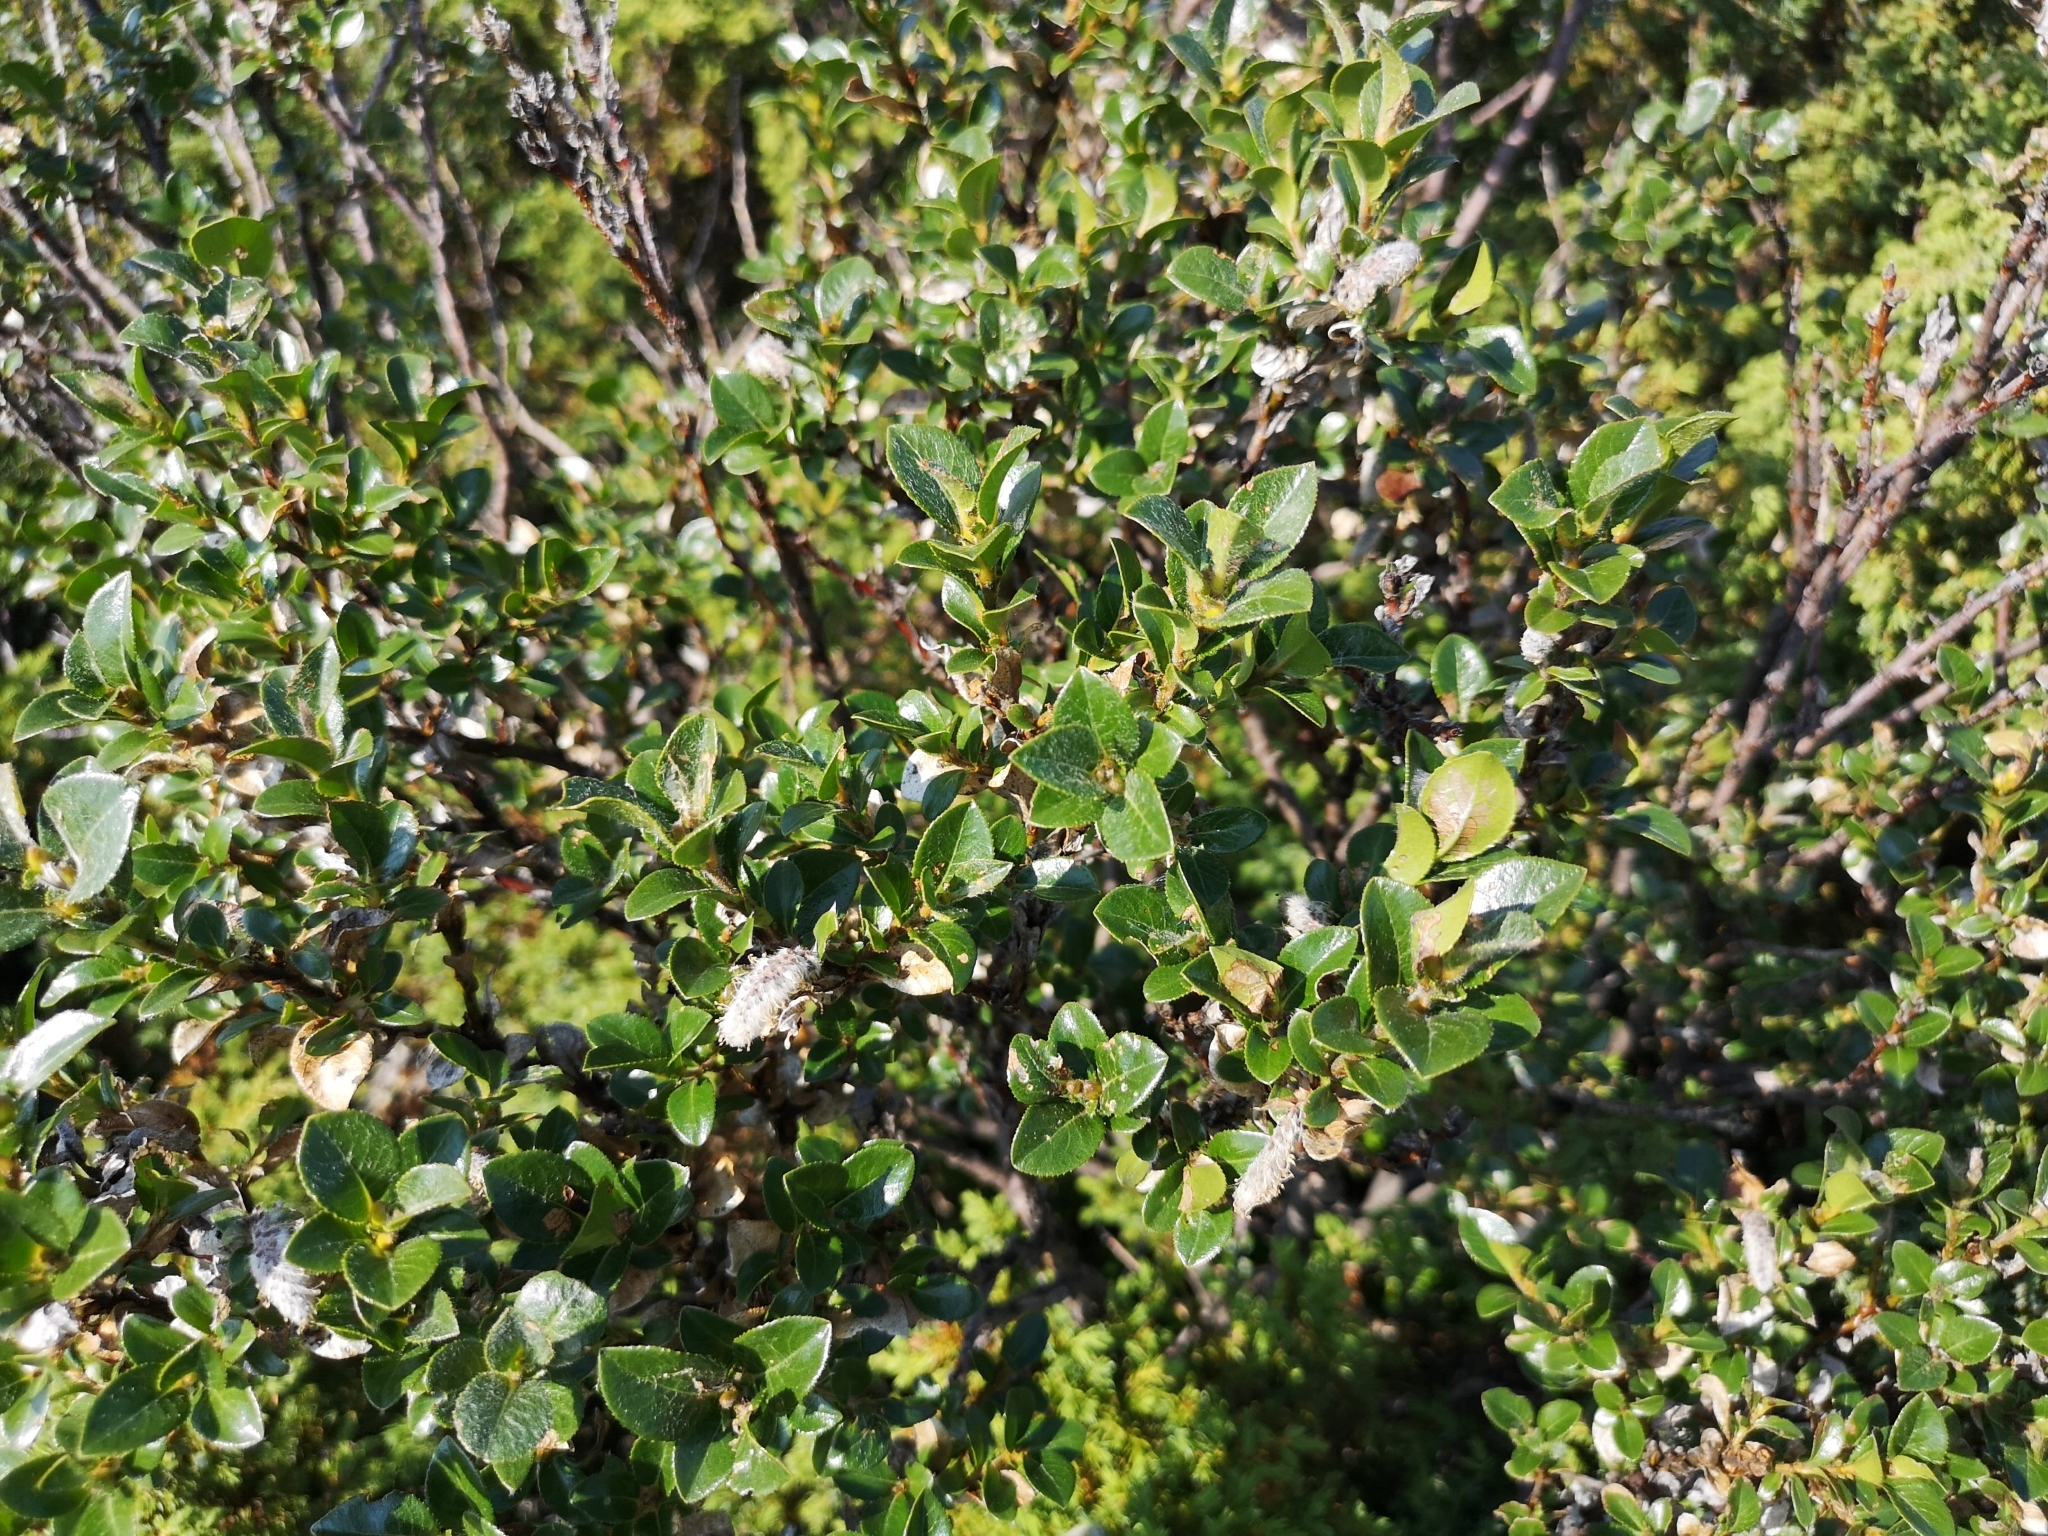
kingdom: Plantae
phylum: Tracheophyta
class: Magnoliopsida
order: Malpighiales
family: Salicaceae
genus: Salix
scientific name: Salix myrsinites
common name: Myrtle willow
